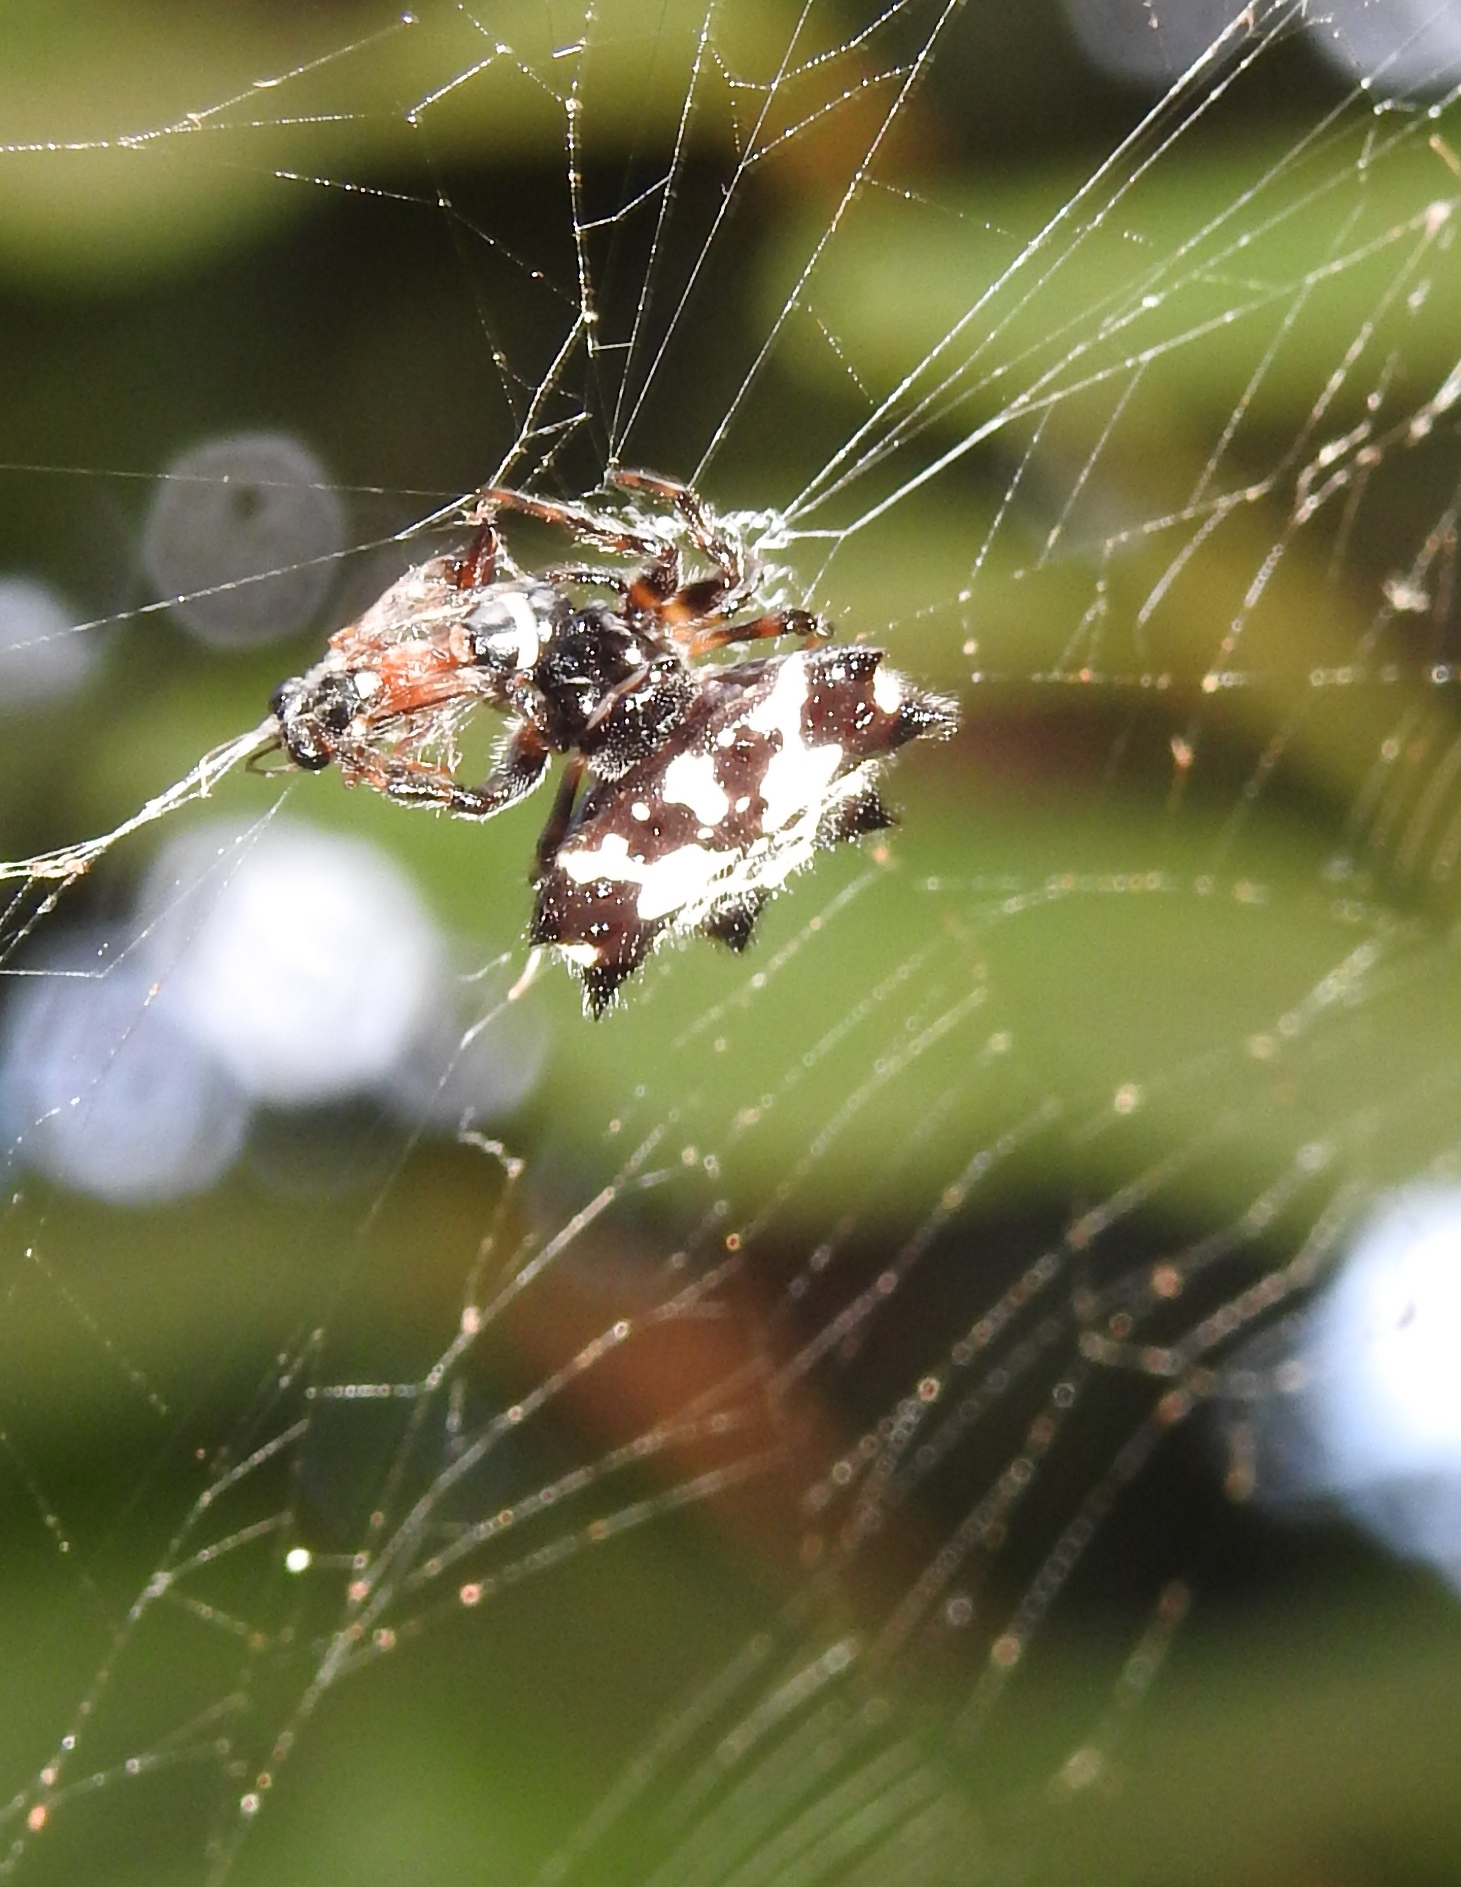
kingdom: Animalia
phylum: Arthropoda
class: Arachnida
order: Araneae
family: Araneidae
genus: Gasteracantha
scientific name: Gasteracantha kuhli
